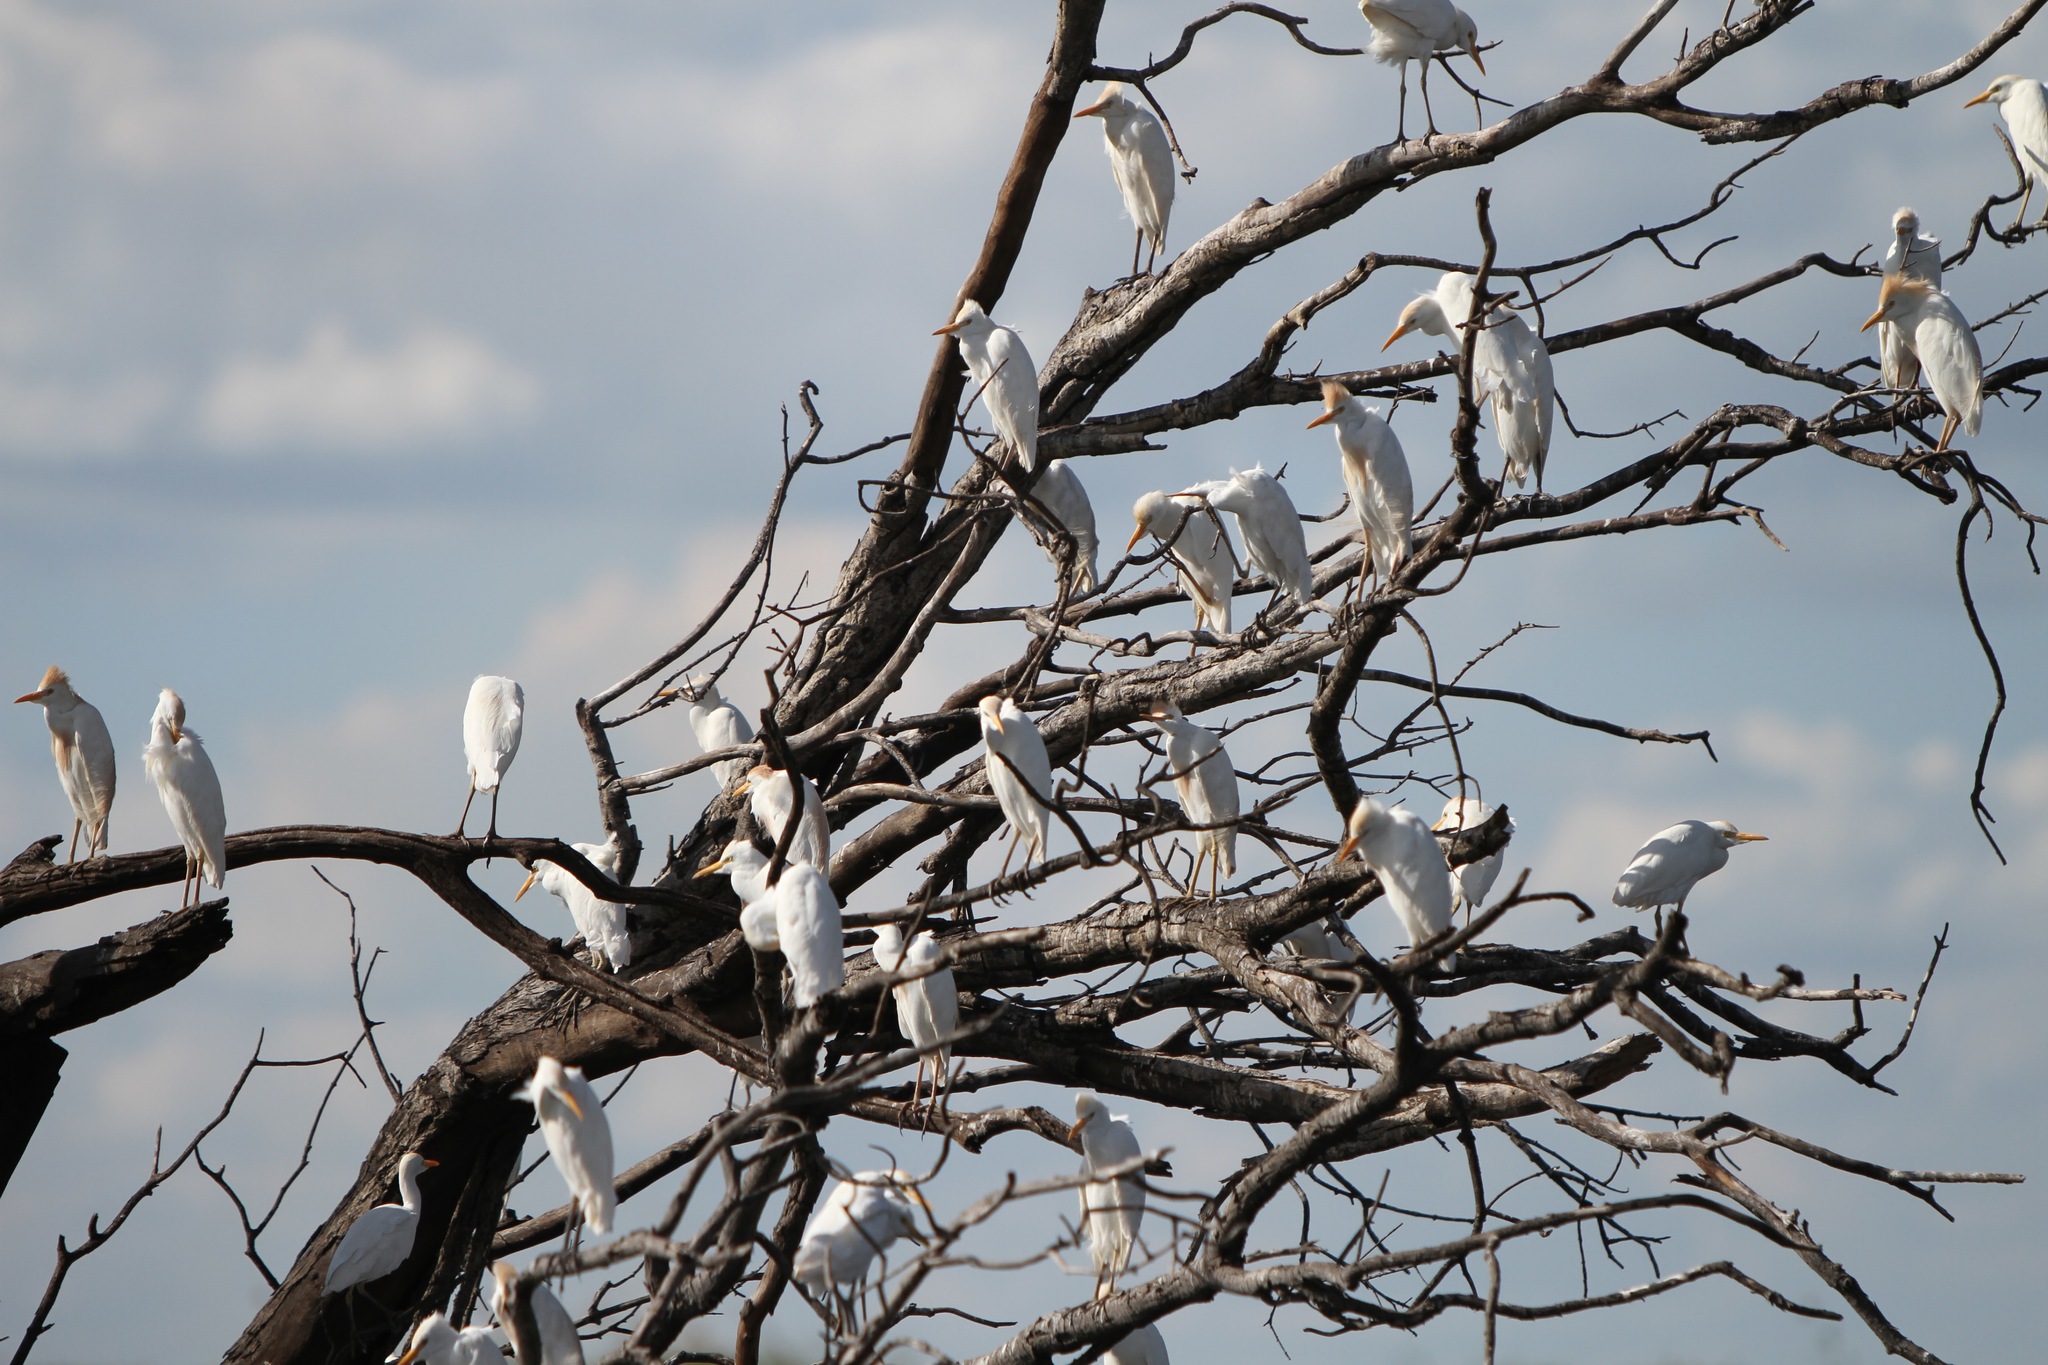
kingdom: Animalia
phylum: Chordata
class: Aves
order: Pelecaniformes
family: Ardeidae
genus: Bubulcus
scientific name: Bubulcus ibis
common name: Cattle egret
